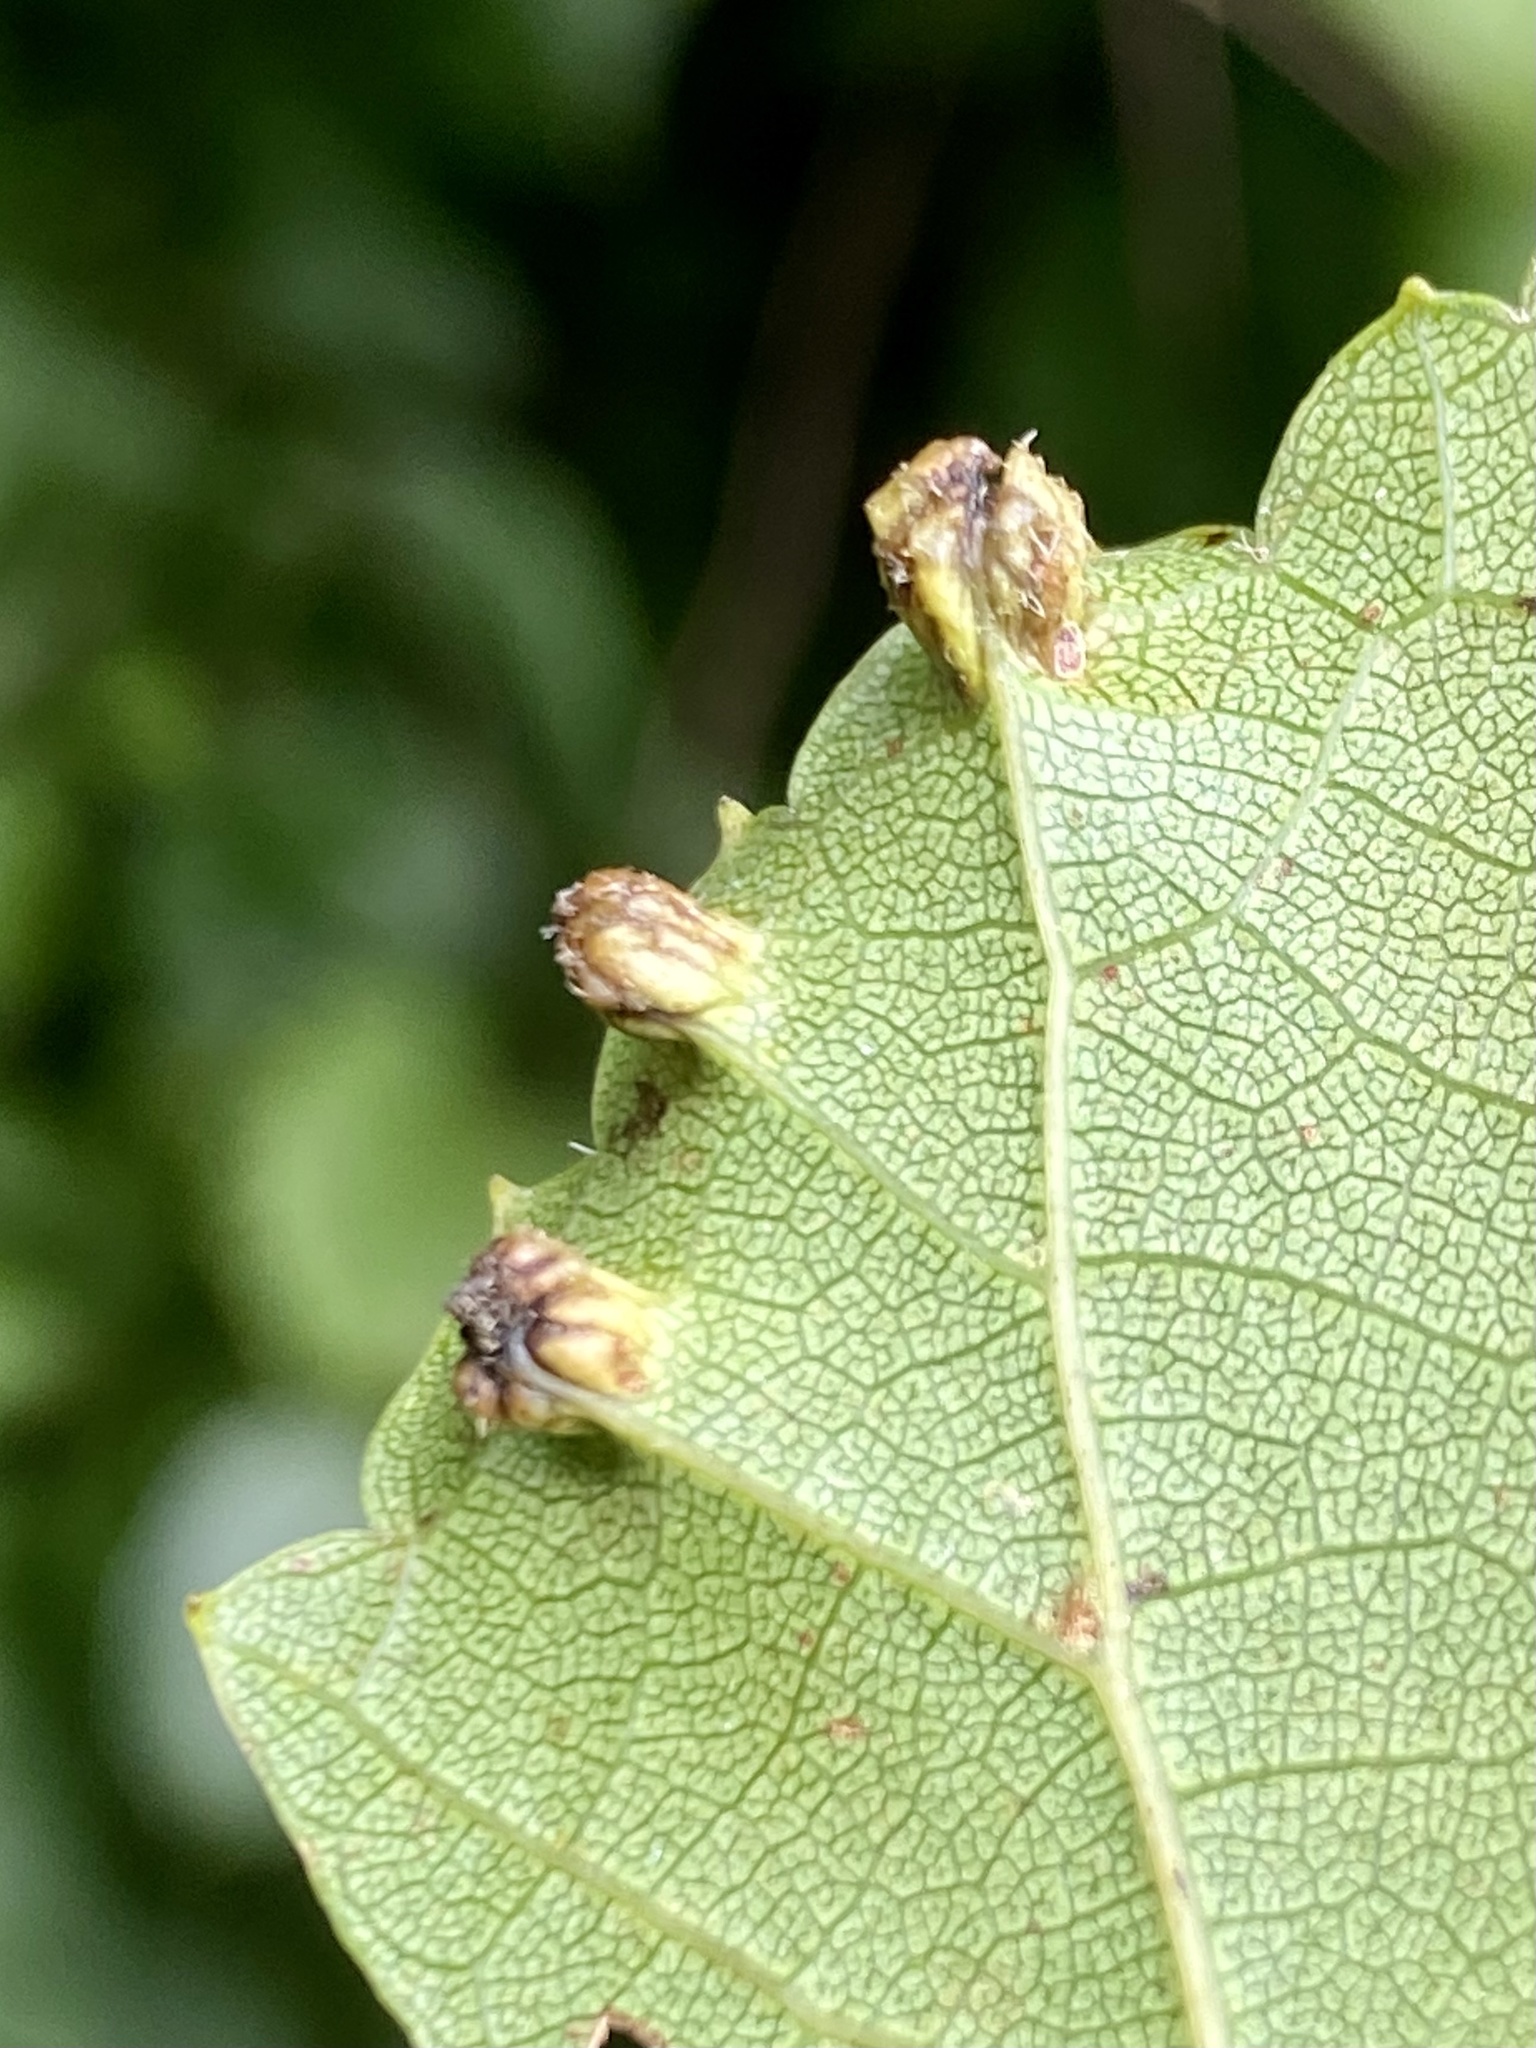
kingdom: Animalia
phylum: Arthropoda
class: Insecta
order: Hemiptera
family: Phylloxeridae
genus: Daktulosphaira
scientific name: Daktulosphaira vitifoliae
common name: Grape phylloxera
